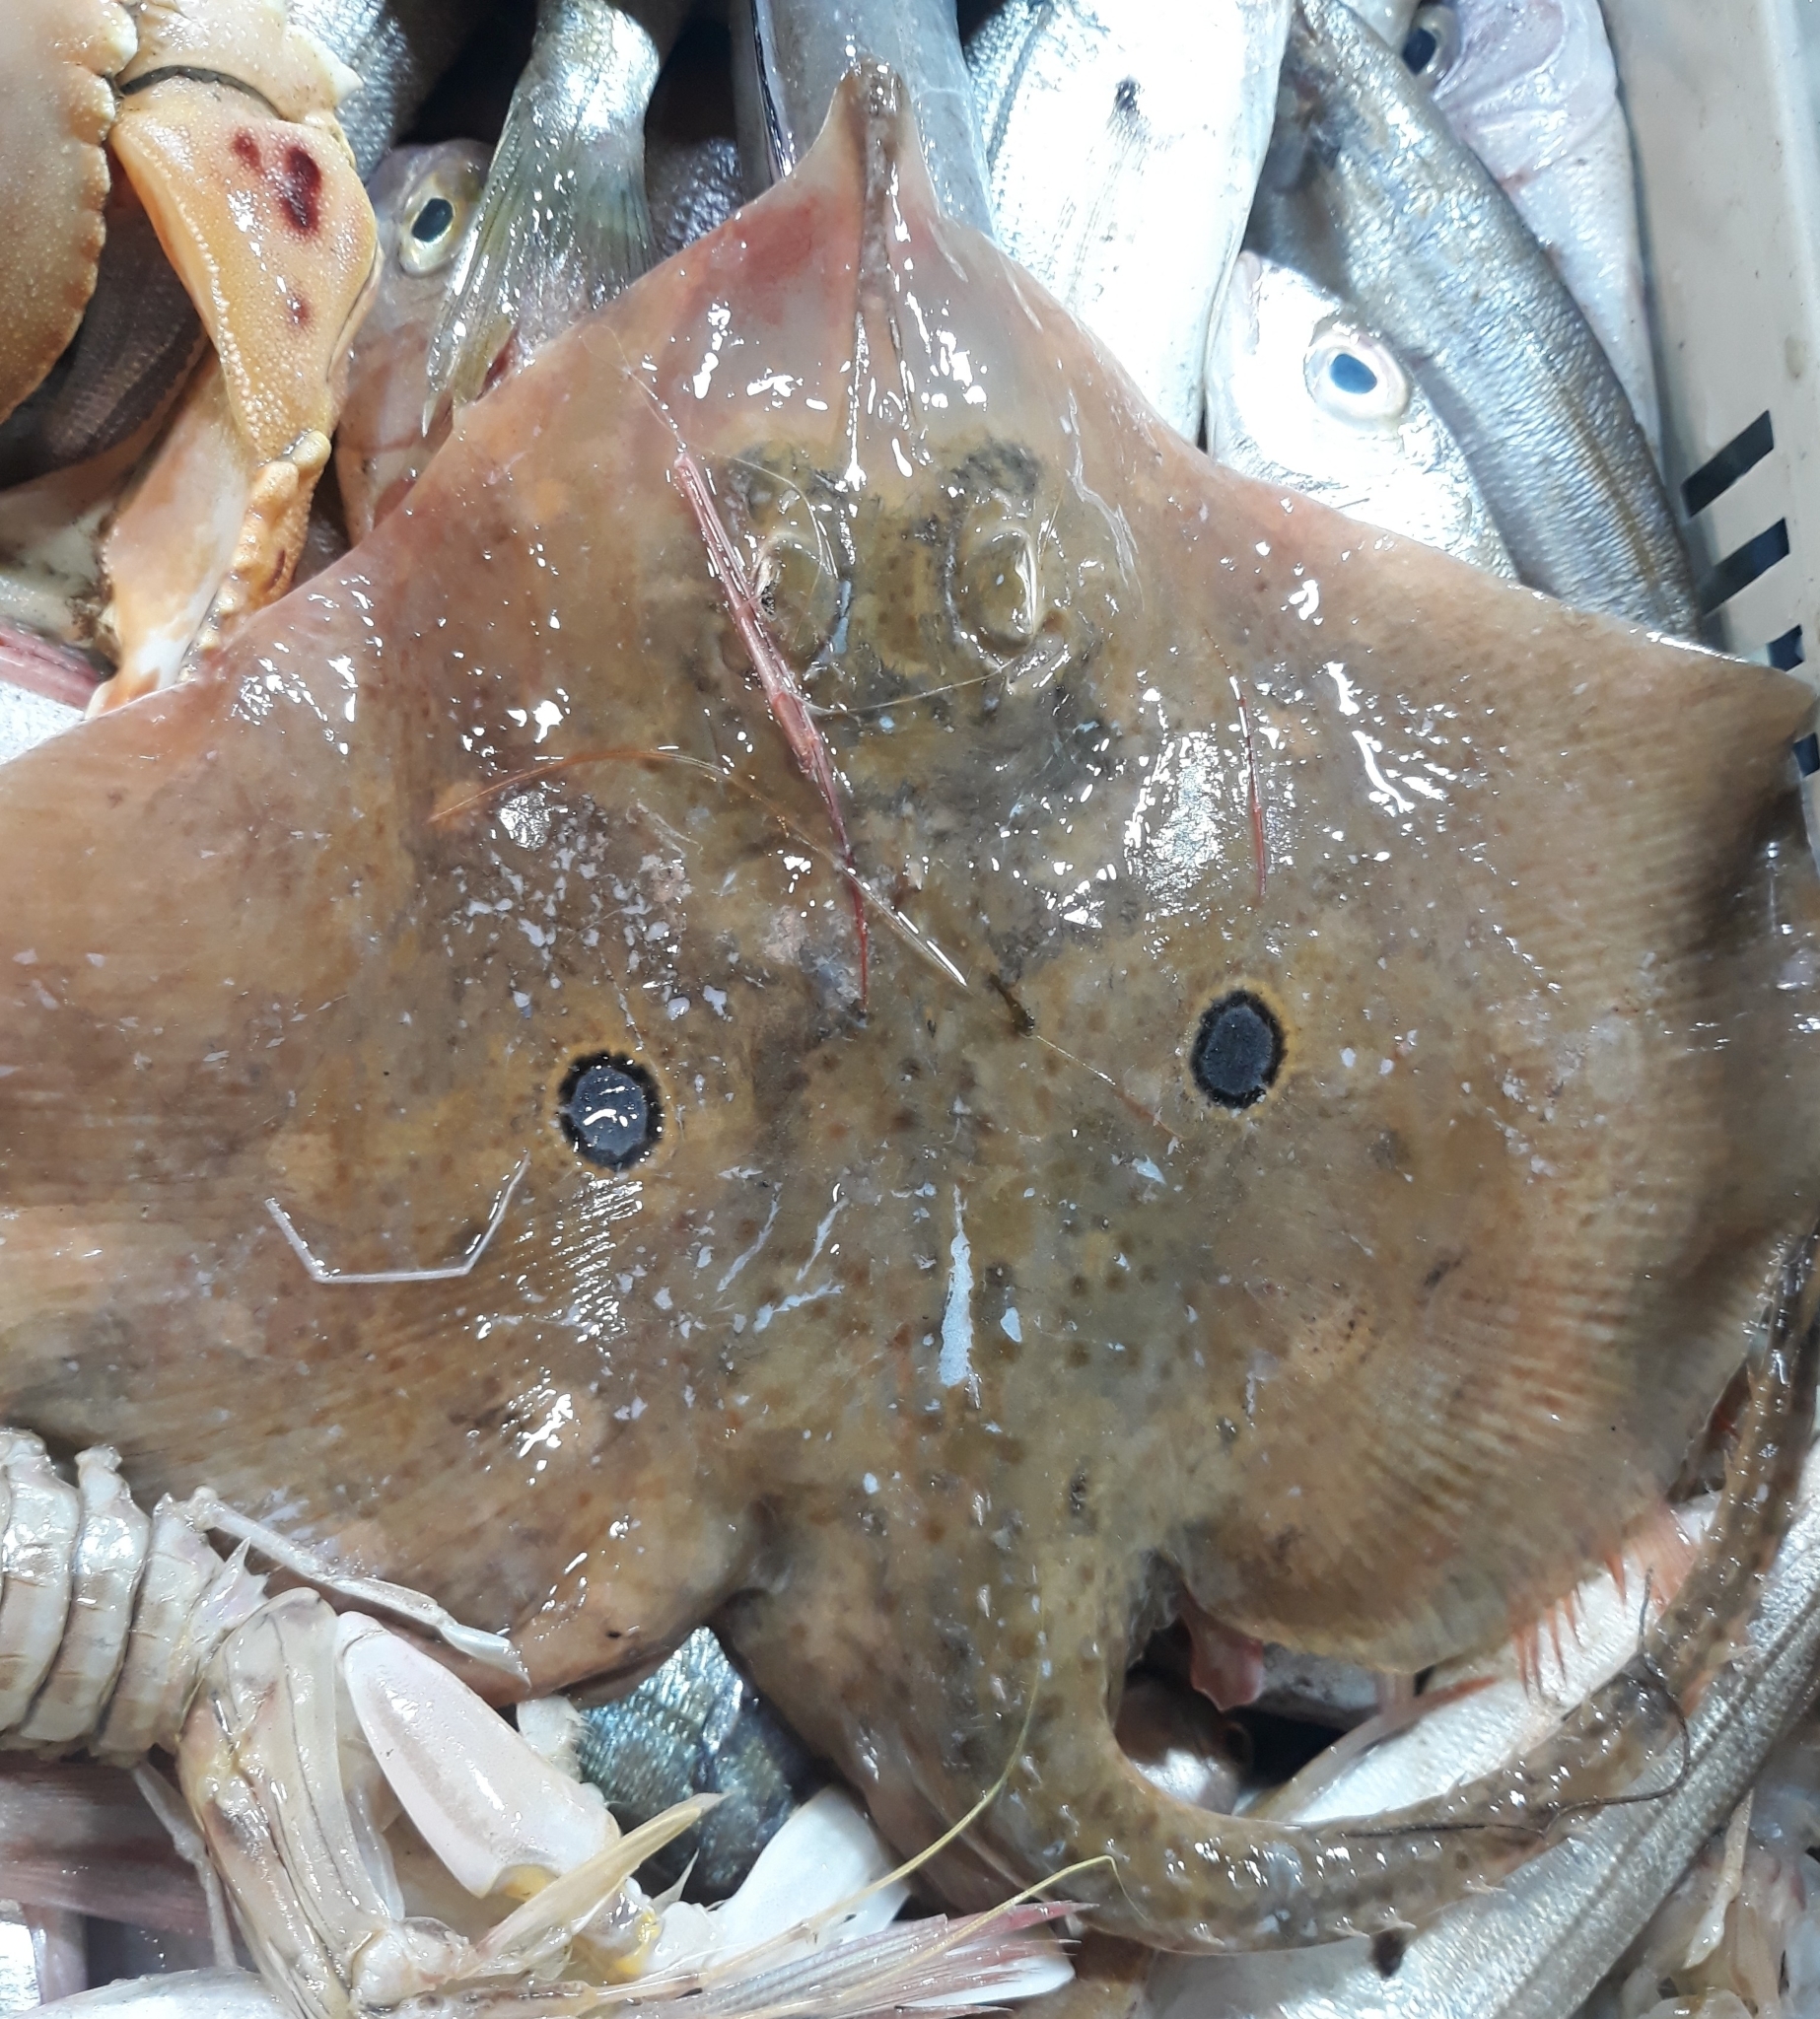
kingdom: Animalia
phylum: Chordata
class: Elasmobranchii
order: Rajiformes
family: Rajidae
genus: Raja
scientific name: Raja miraletus
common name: Brown ray
